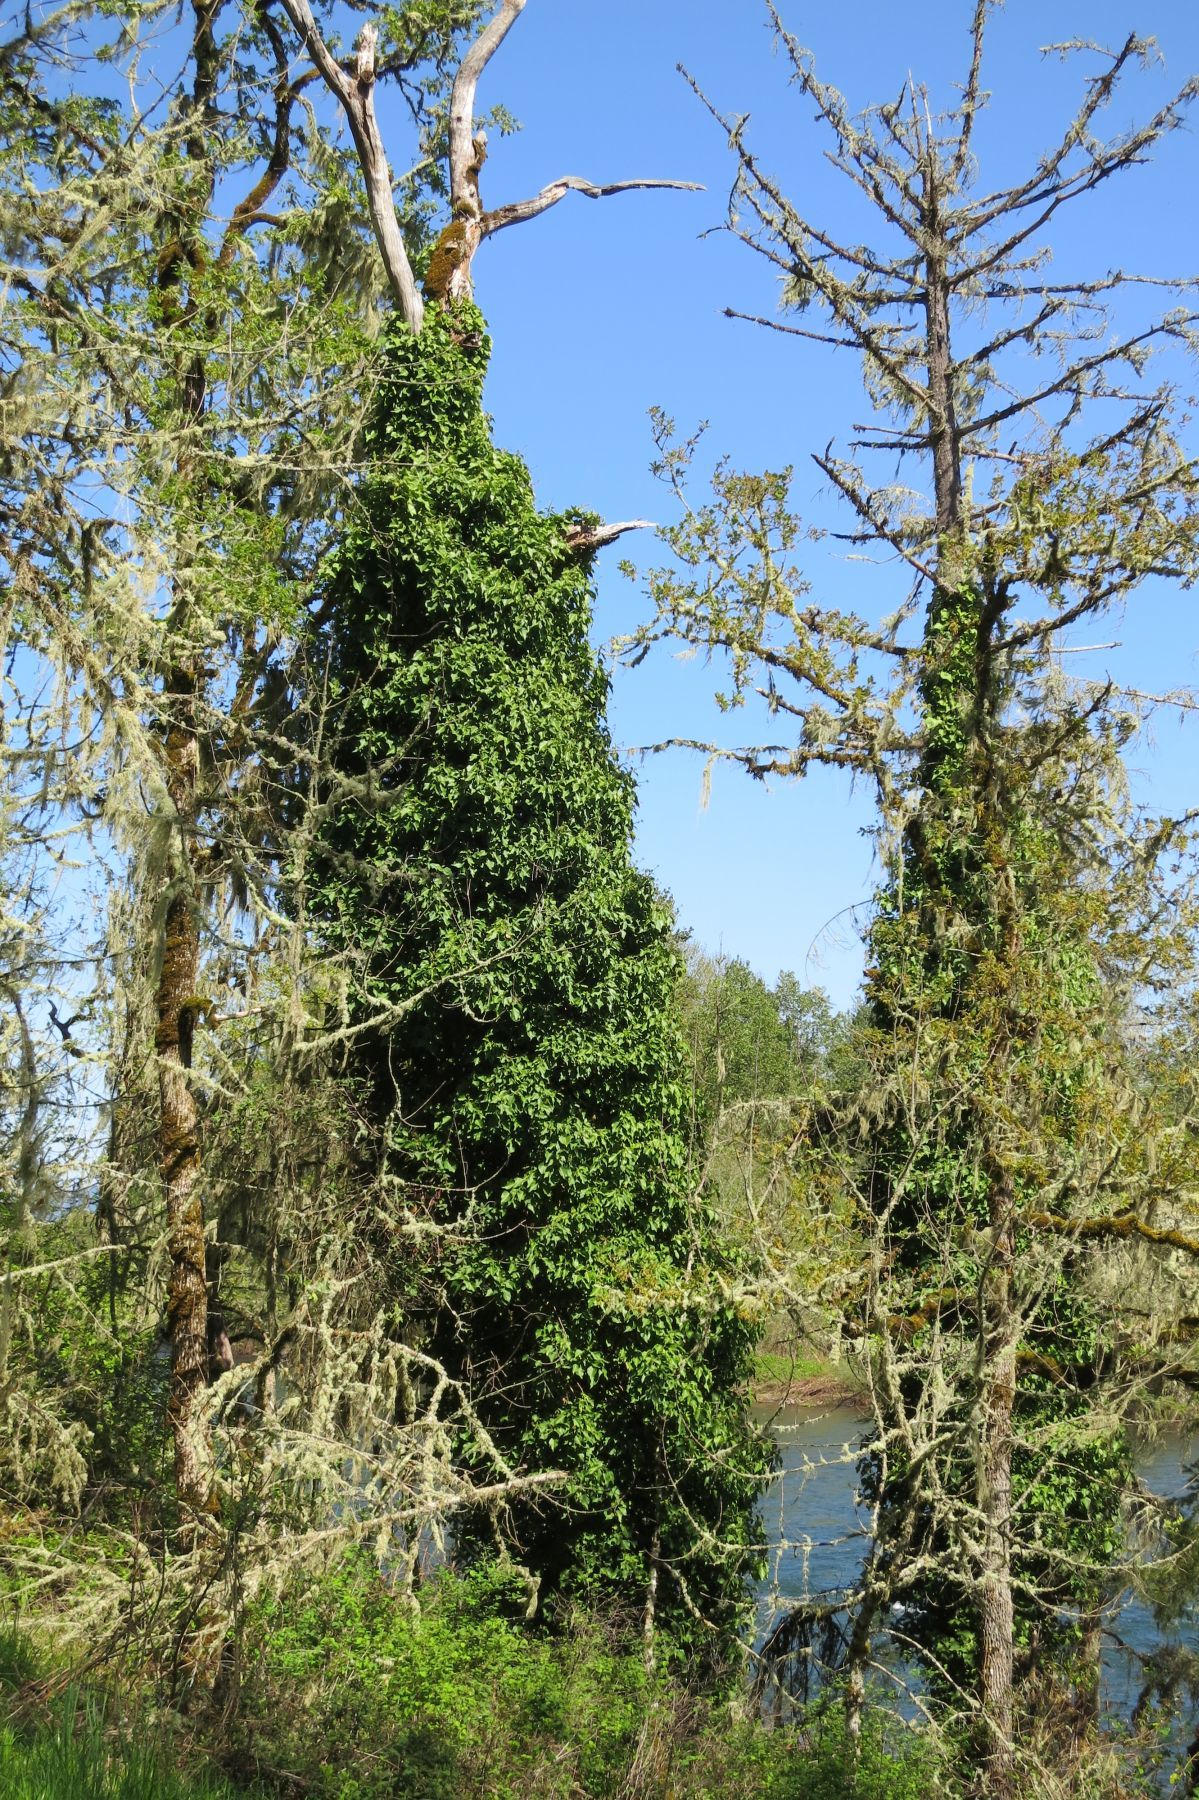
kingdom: Plantae
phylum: Tracheophyta
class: Magnoliopsida
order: Apiales
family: Araliaceae
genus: Hedera
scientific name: Hedera hibernica
